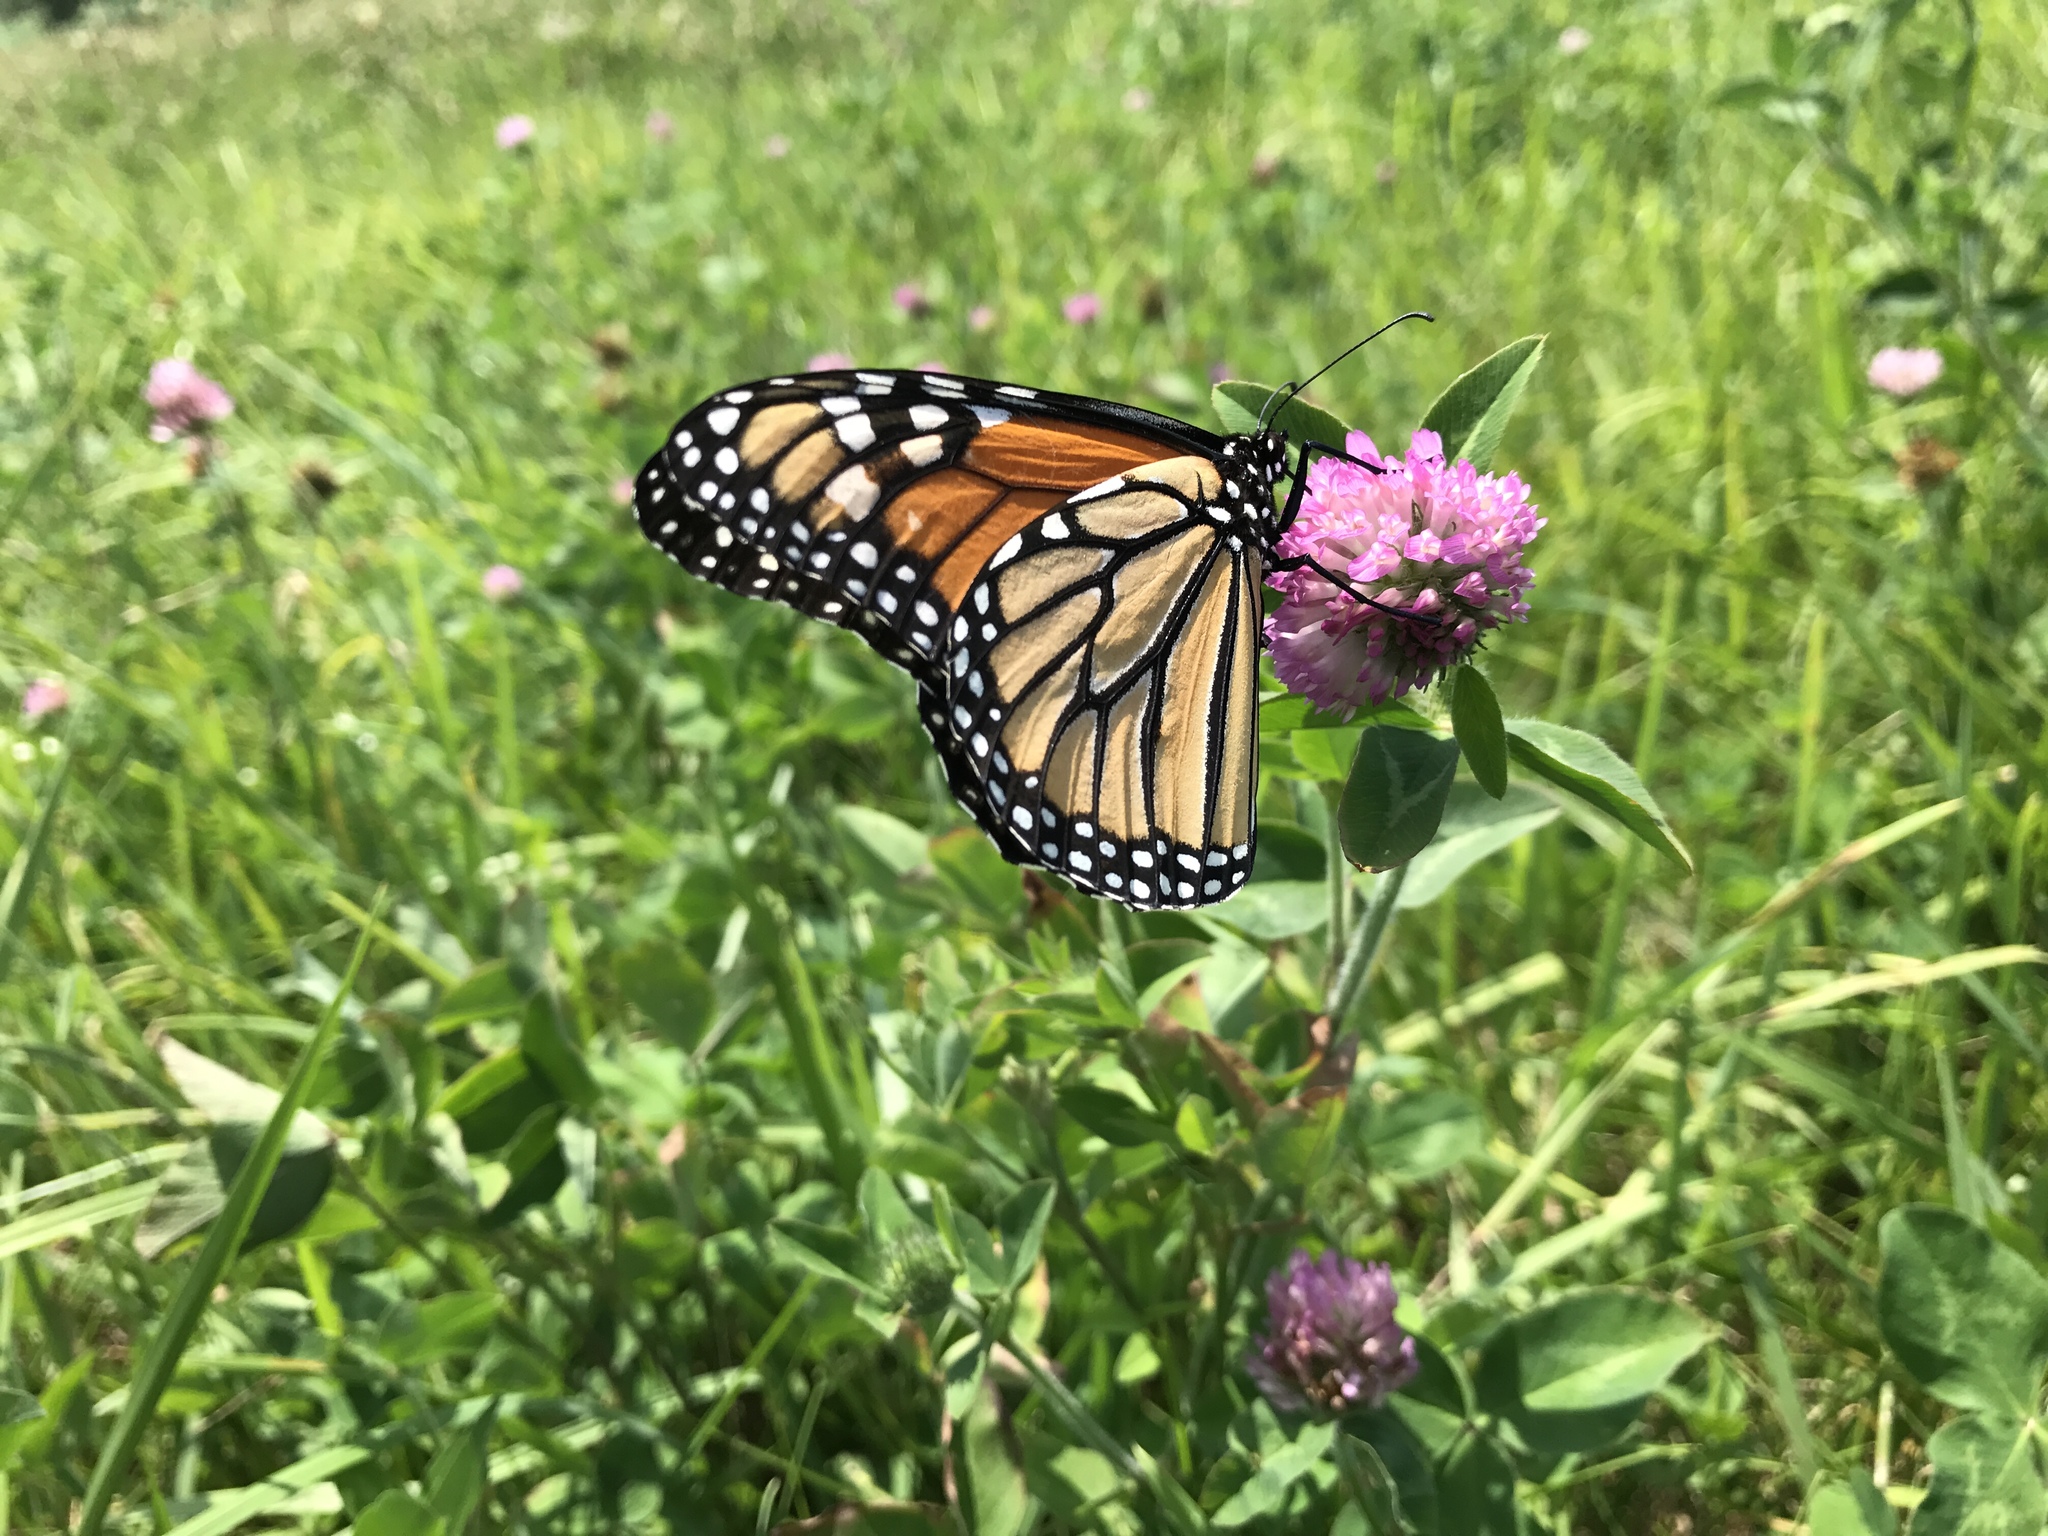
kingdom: Animalia
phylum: Arthropoda
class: Insecta
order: Lepidoptera
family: Nymphalidae
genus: Danaus
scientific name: Danaus plexippus
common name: Monarch
